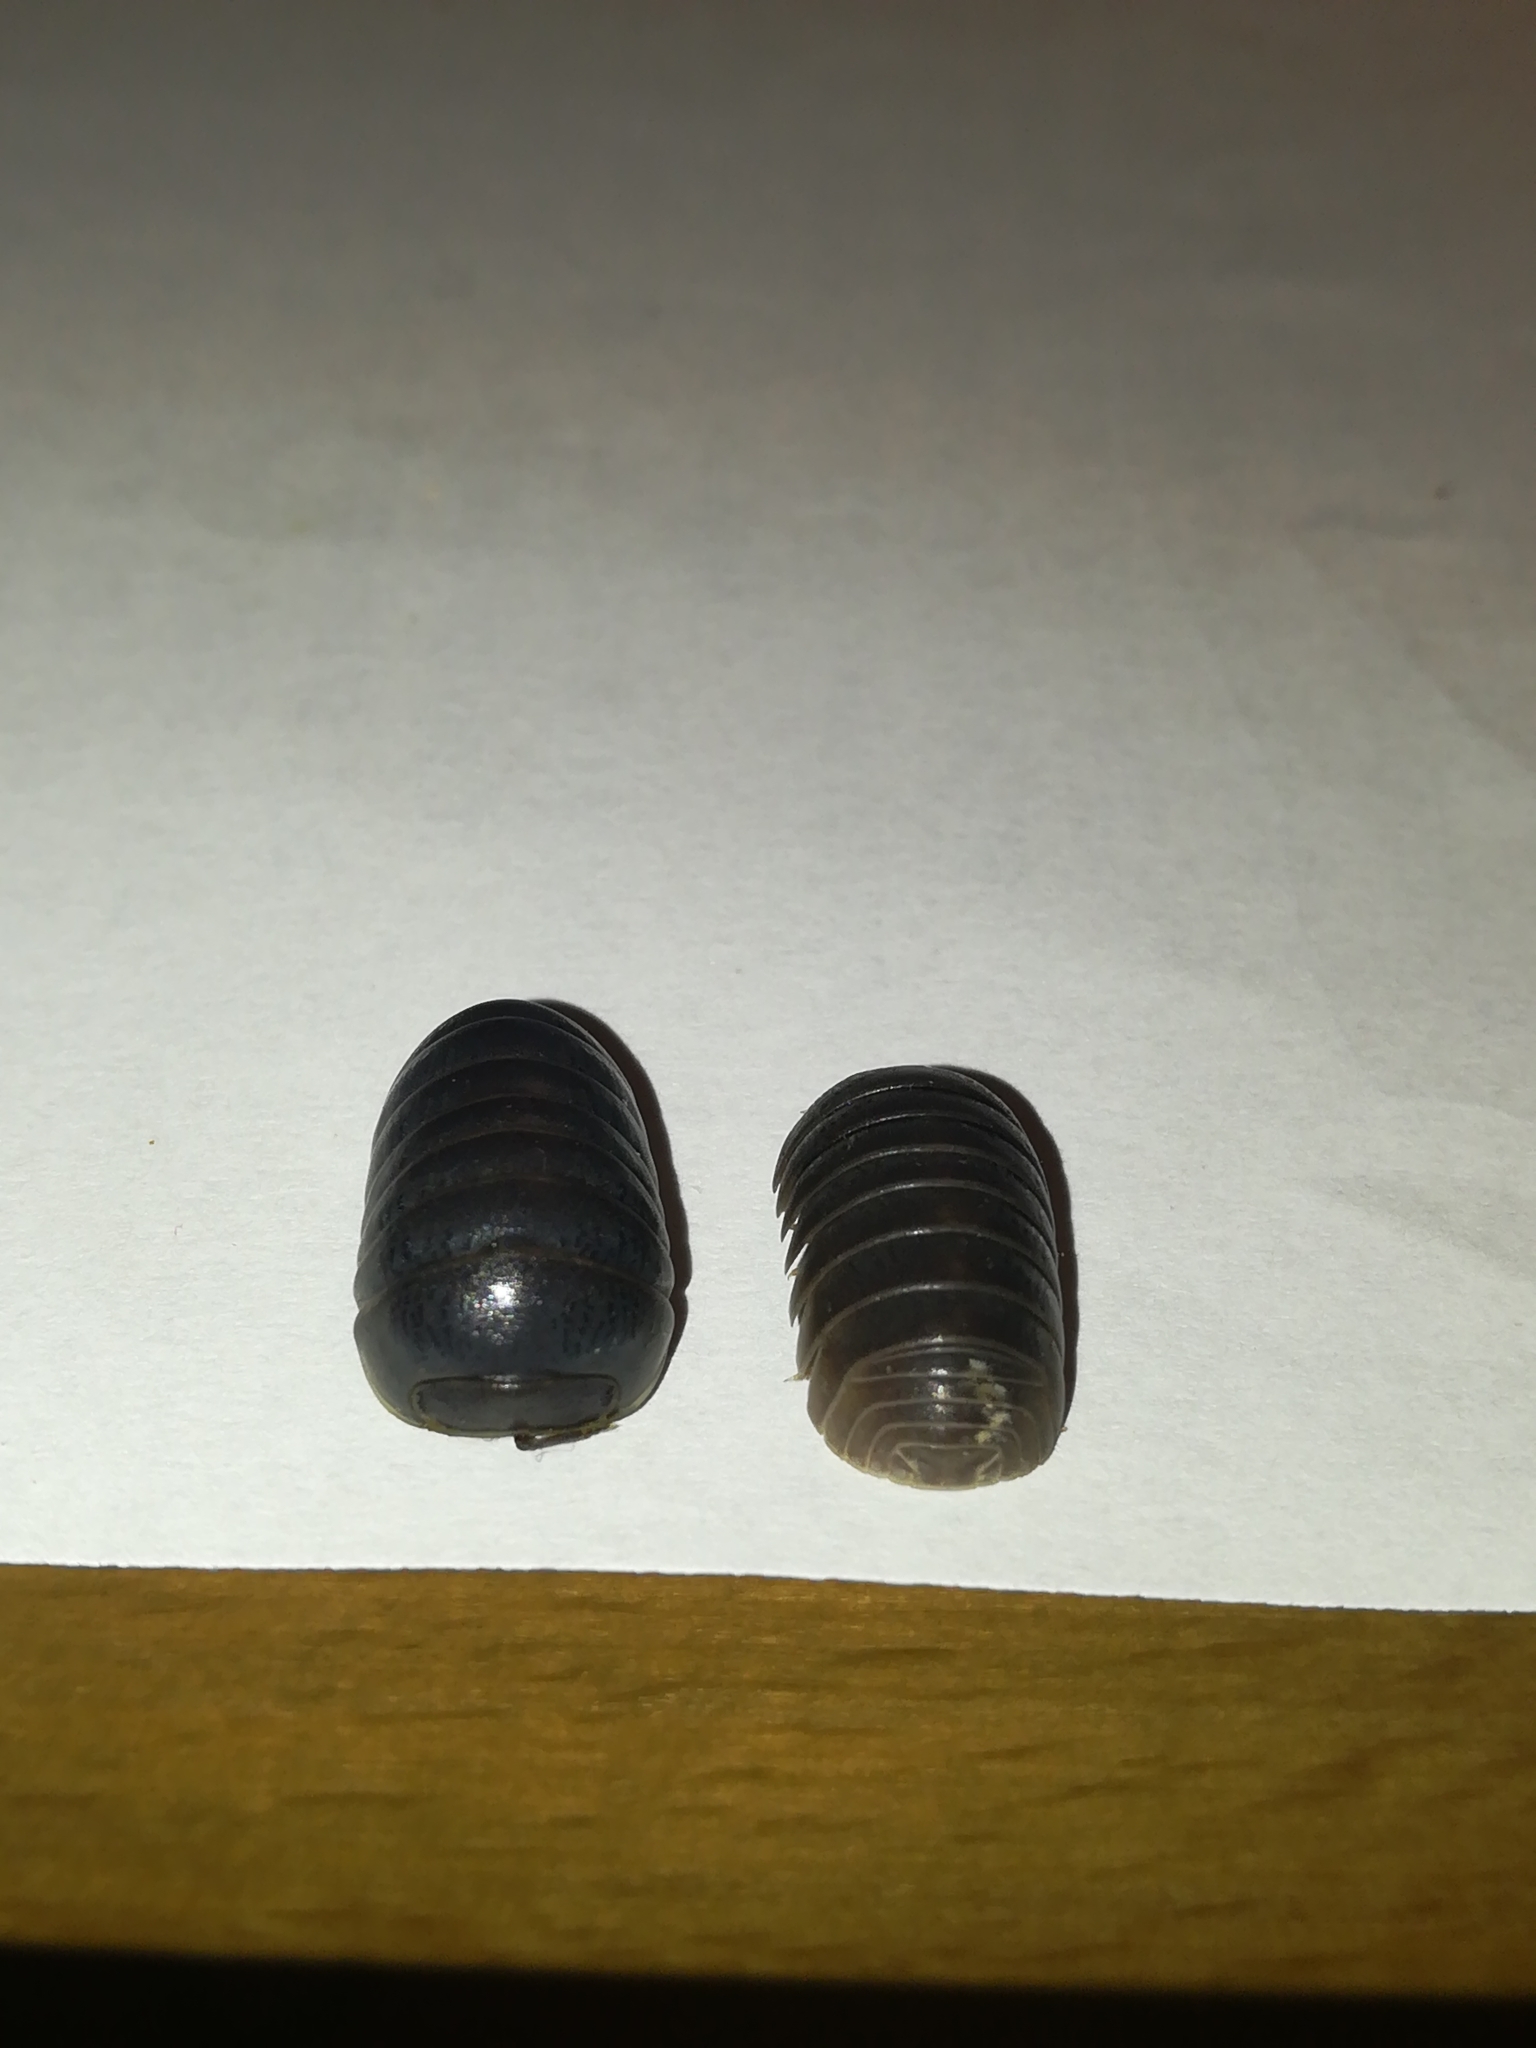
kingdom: Animalia
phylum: Arthropoda
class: Malacostraca
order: Isopoda
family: Armadillidae
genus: Armadillo
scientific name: Armadillo officinalis
